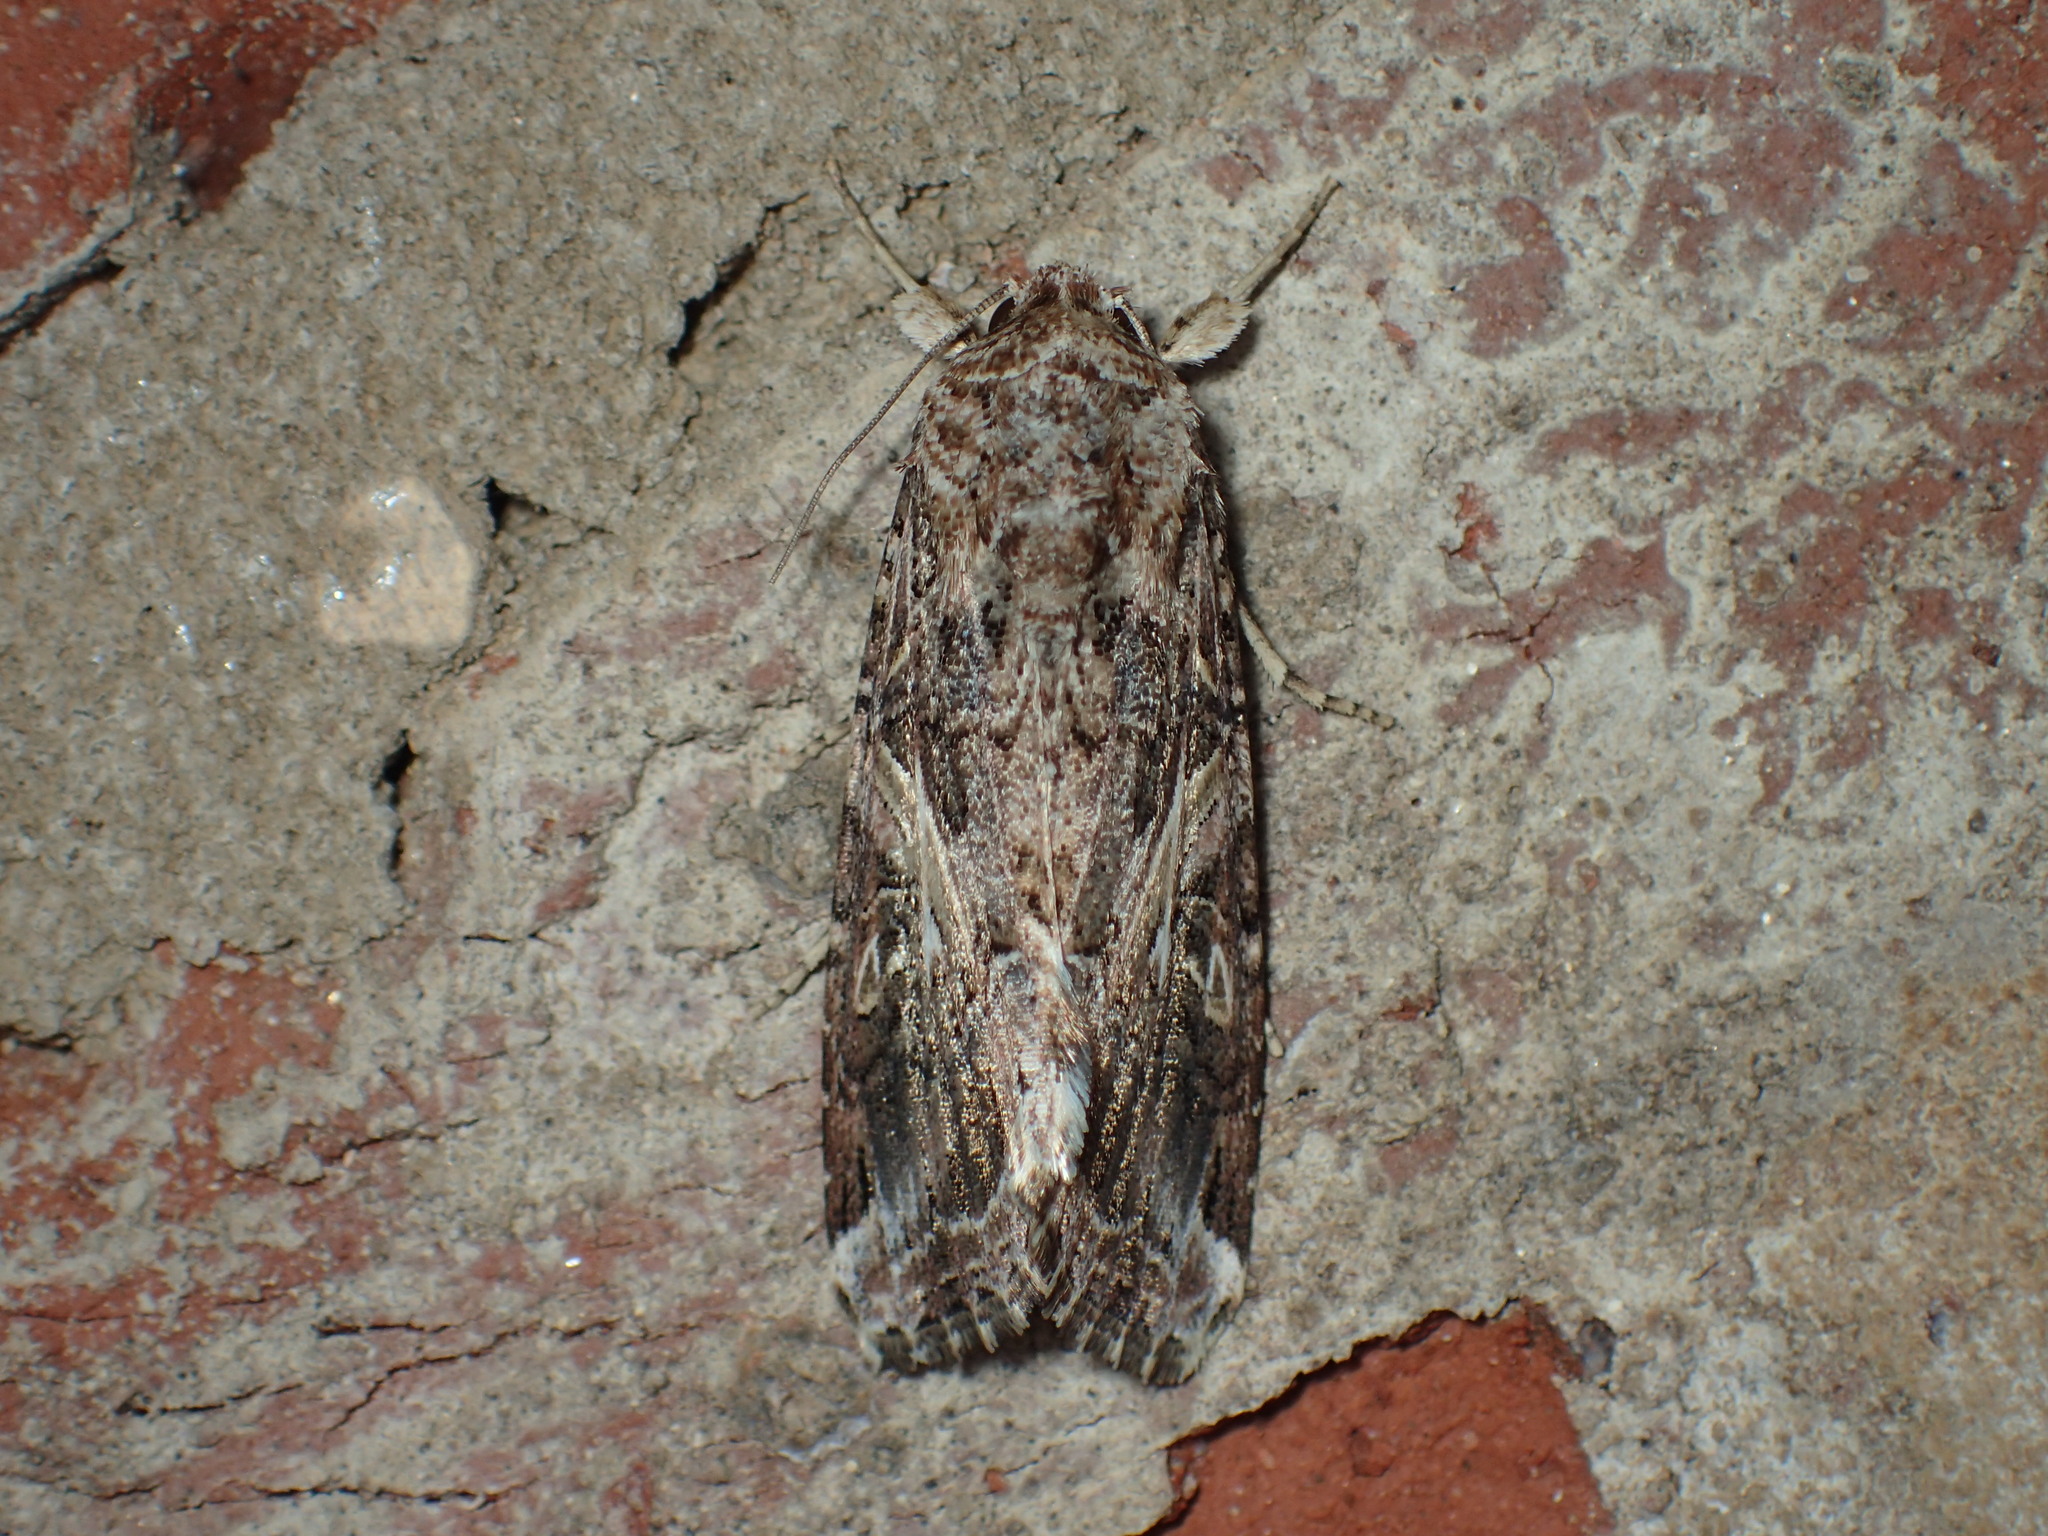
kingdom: Animalia
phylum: Arthropoda
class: Insecta
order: Lepidoptera
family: Noctuidae
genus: Spodoptera
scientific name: Spodoptera ornithogalli
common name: Yellow-striped armyworm
